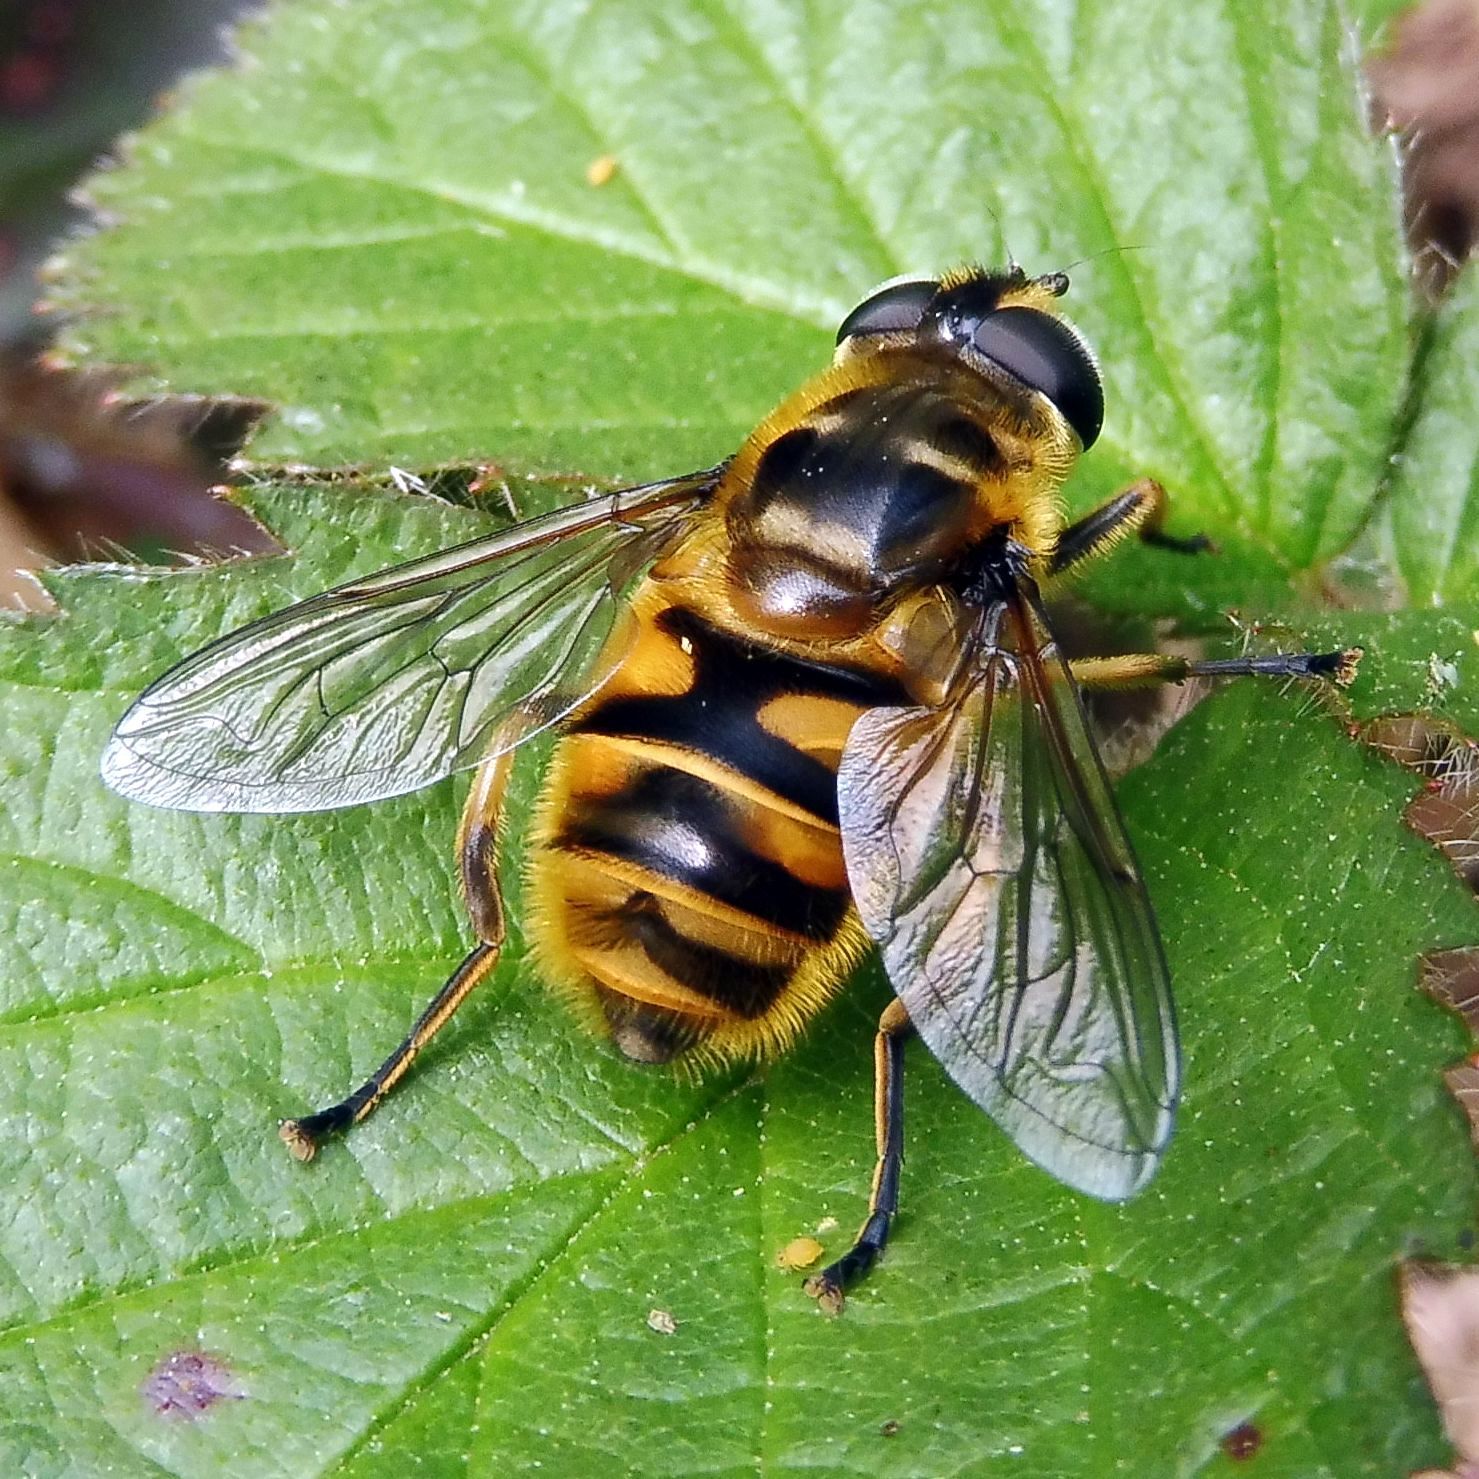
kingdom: Animalia
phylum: Arthropoda
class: Insecta
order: Diptera
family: Syrphidae
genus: Myathropa
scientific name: Myathropa florea
